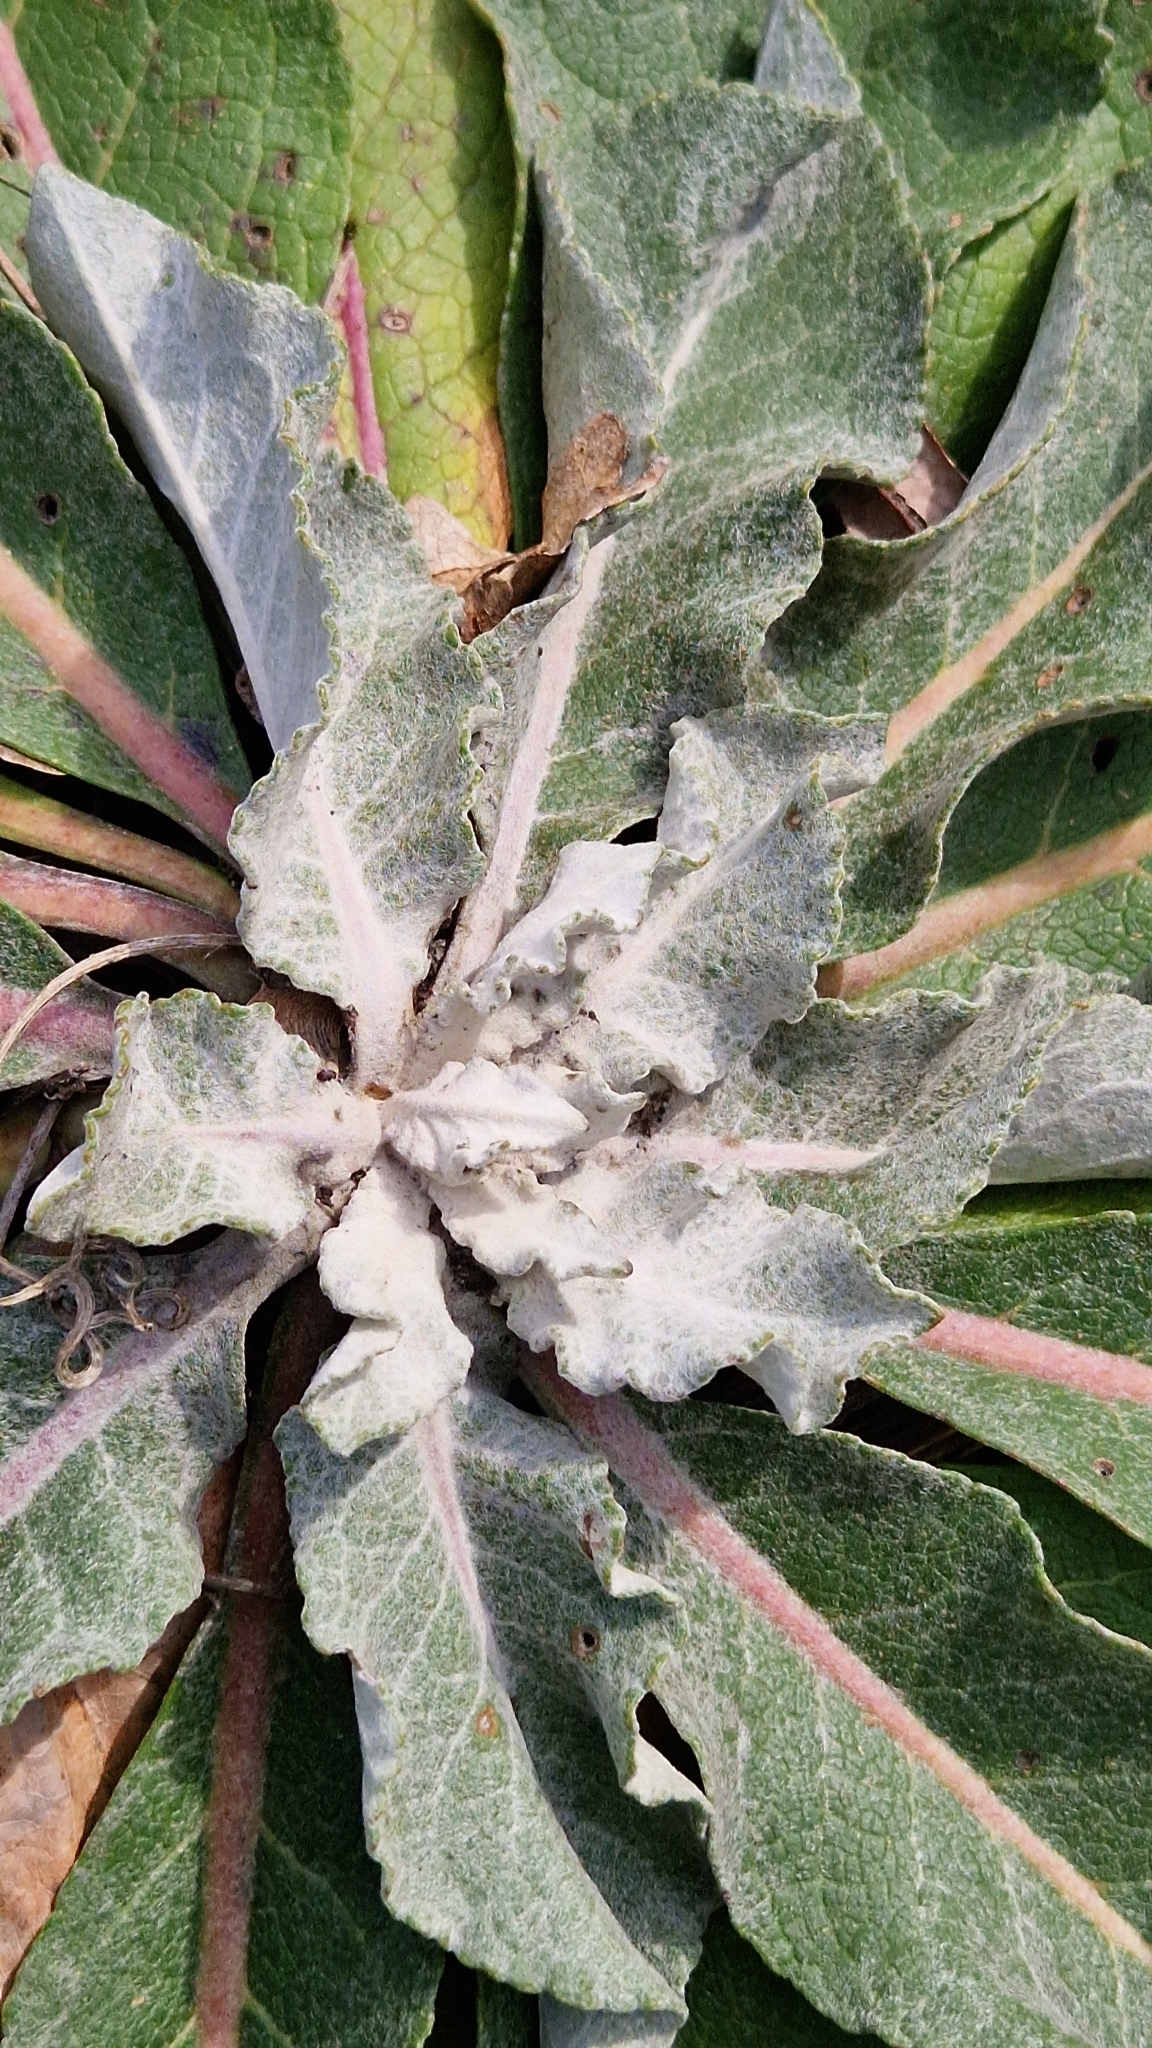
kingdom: Plantae
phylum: Tracheophyta
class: Magnoliopsida
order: Lamiales
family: Scrophulariaceae
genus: Verbascum
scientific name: Verbascum gnaphalodes
